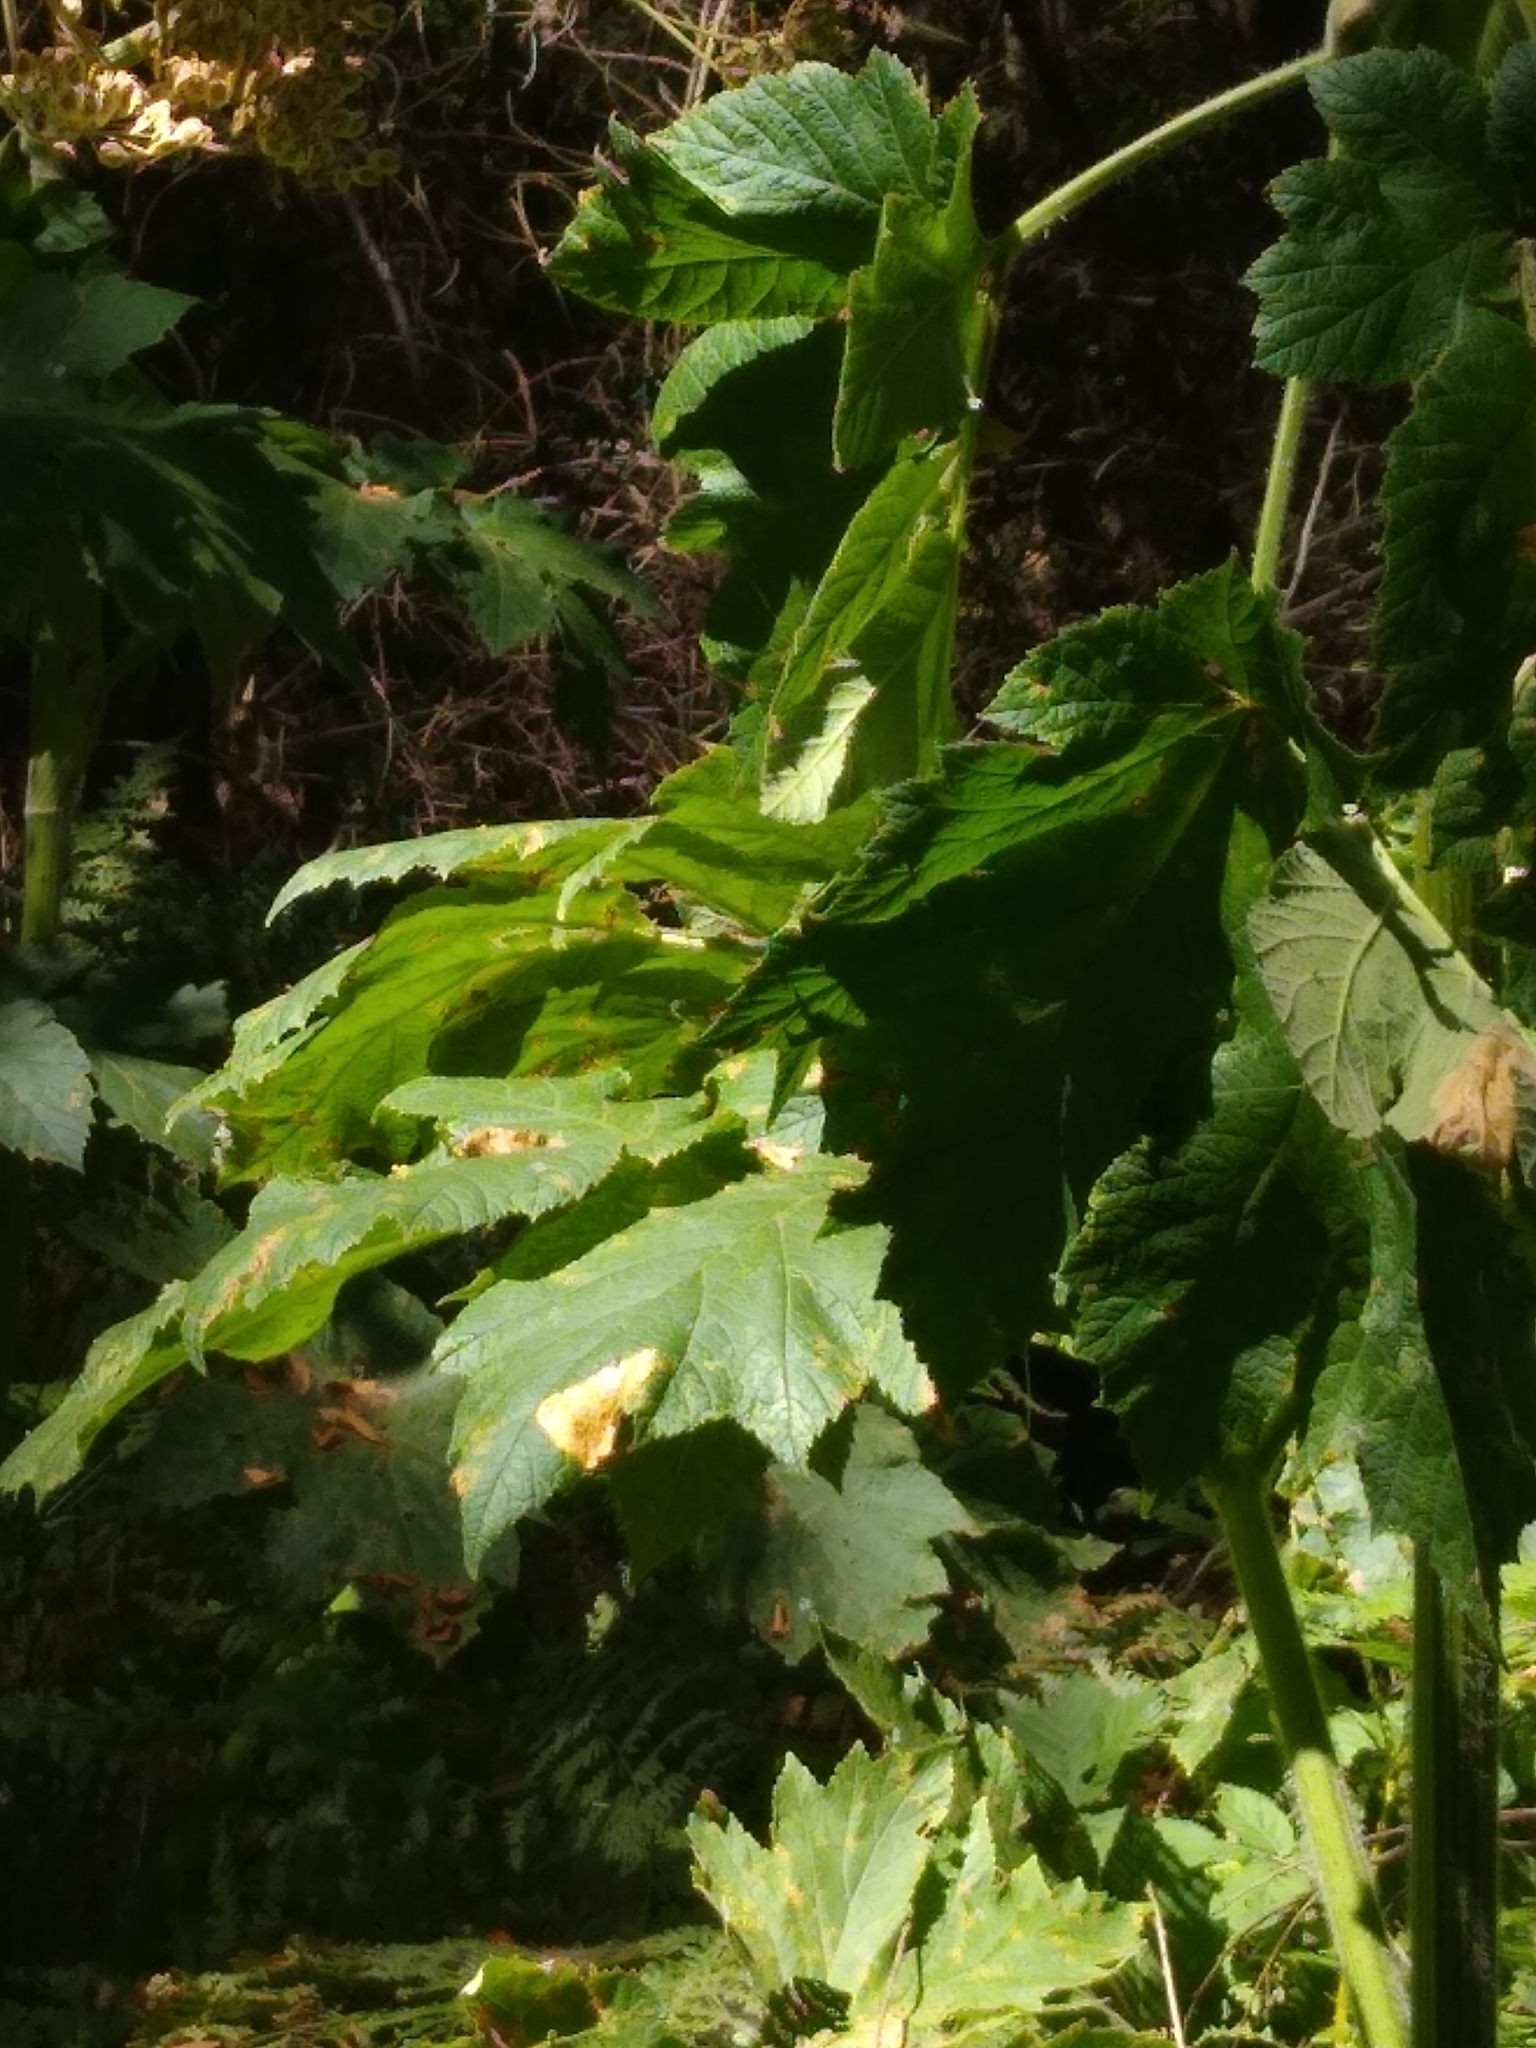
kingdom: Plantae
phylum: Tracheophyta
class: Magnoliopsida
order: Apiales
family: Apiaceae
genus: Heracleum
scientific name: Heracleum maximum
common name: American cow parsnip
